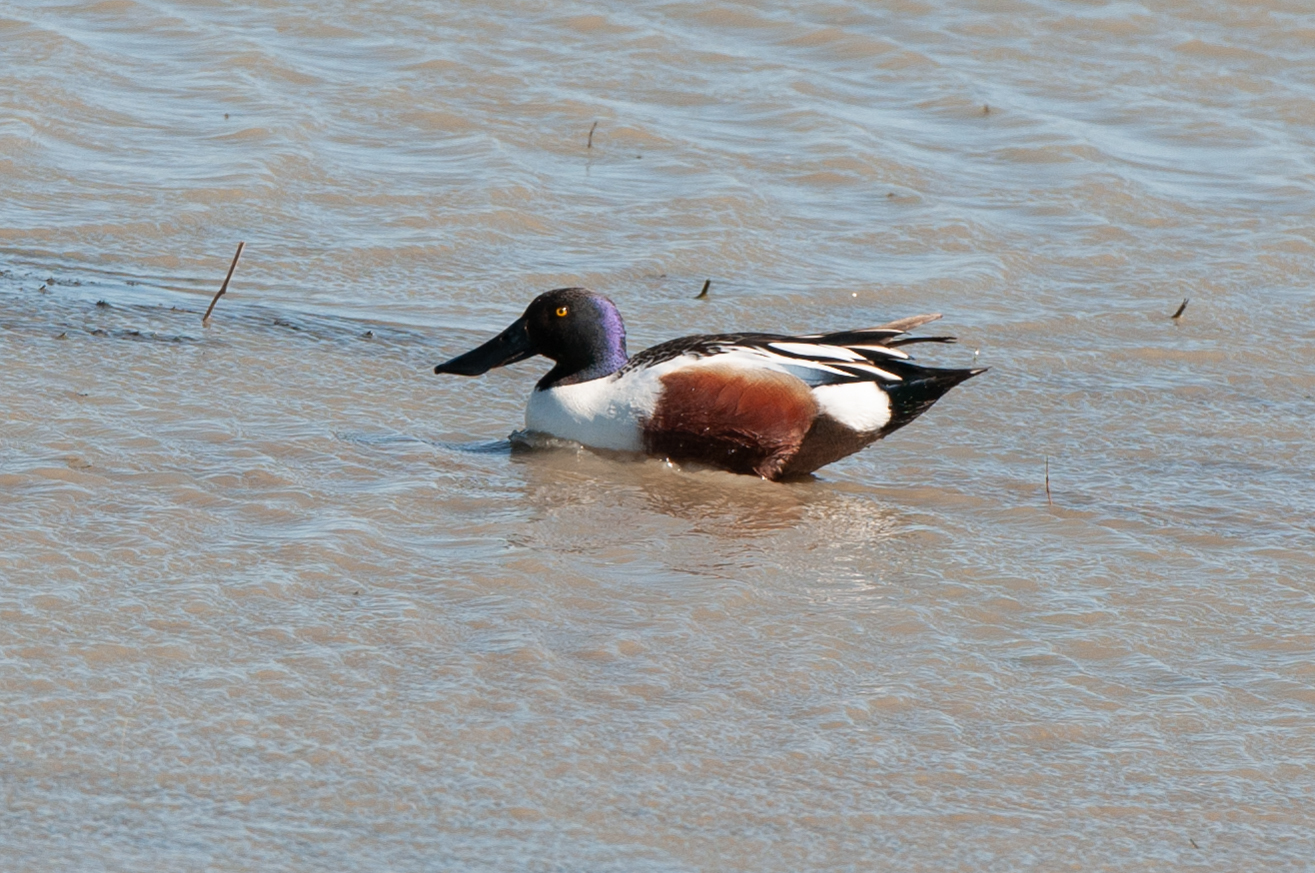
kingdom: Animalia
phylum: Chordata
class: Aves
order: Anseriformes
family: Anatidae
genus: Spatula
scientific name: Spatula clypeata
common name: Northern shoveler
